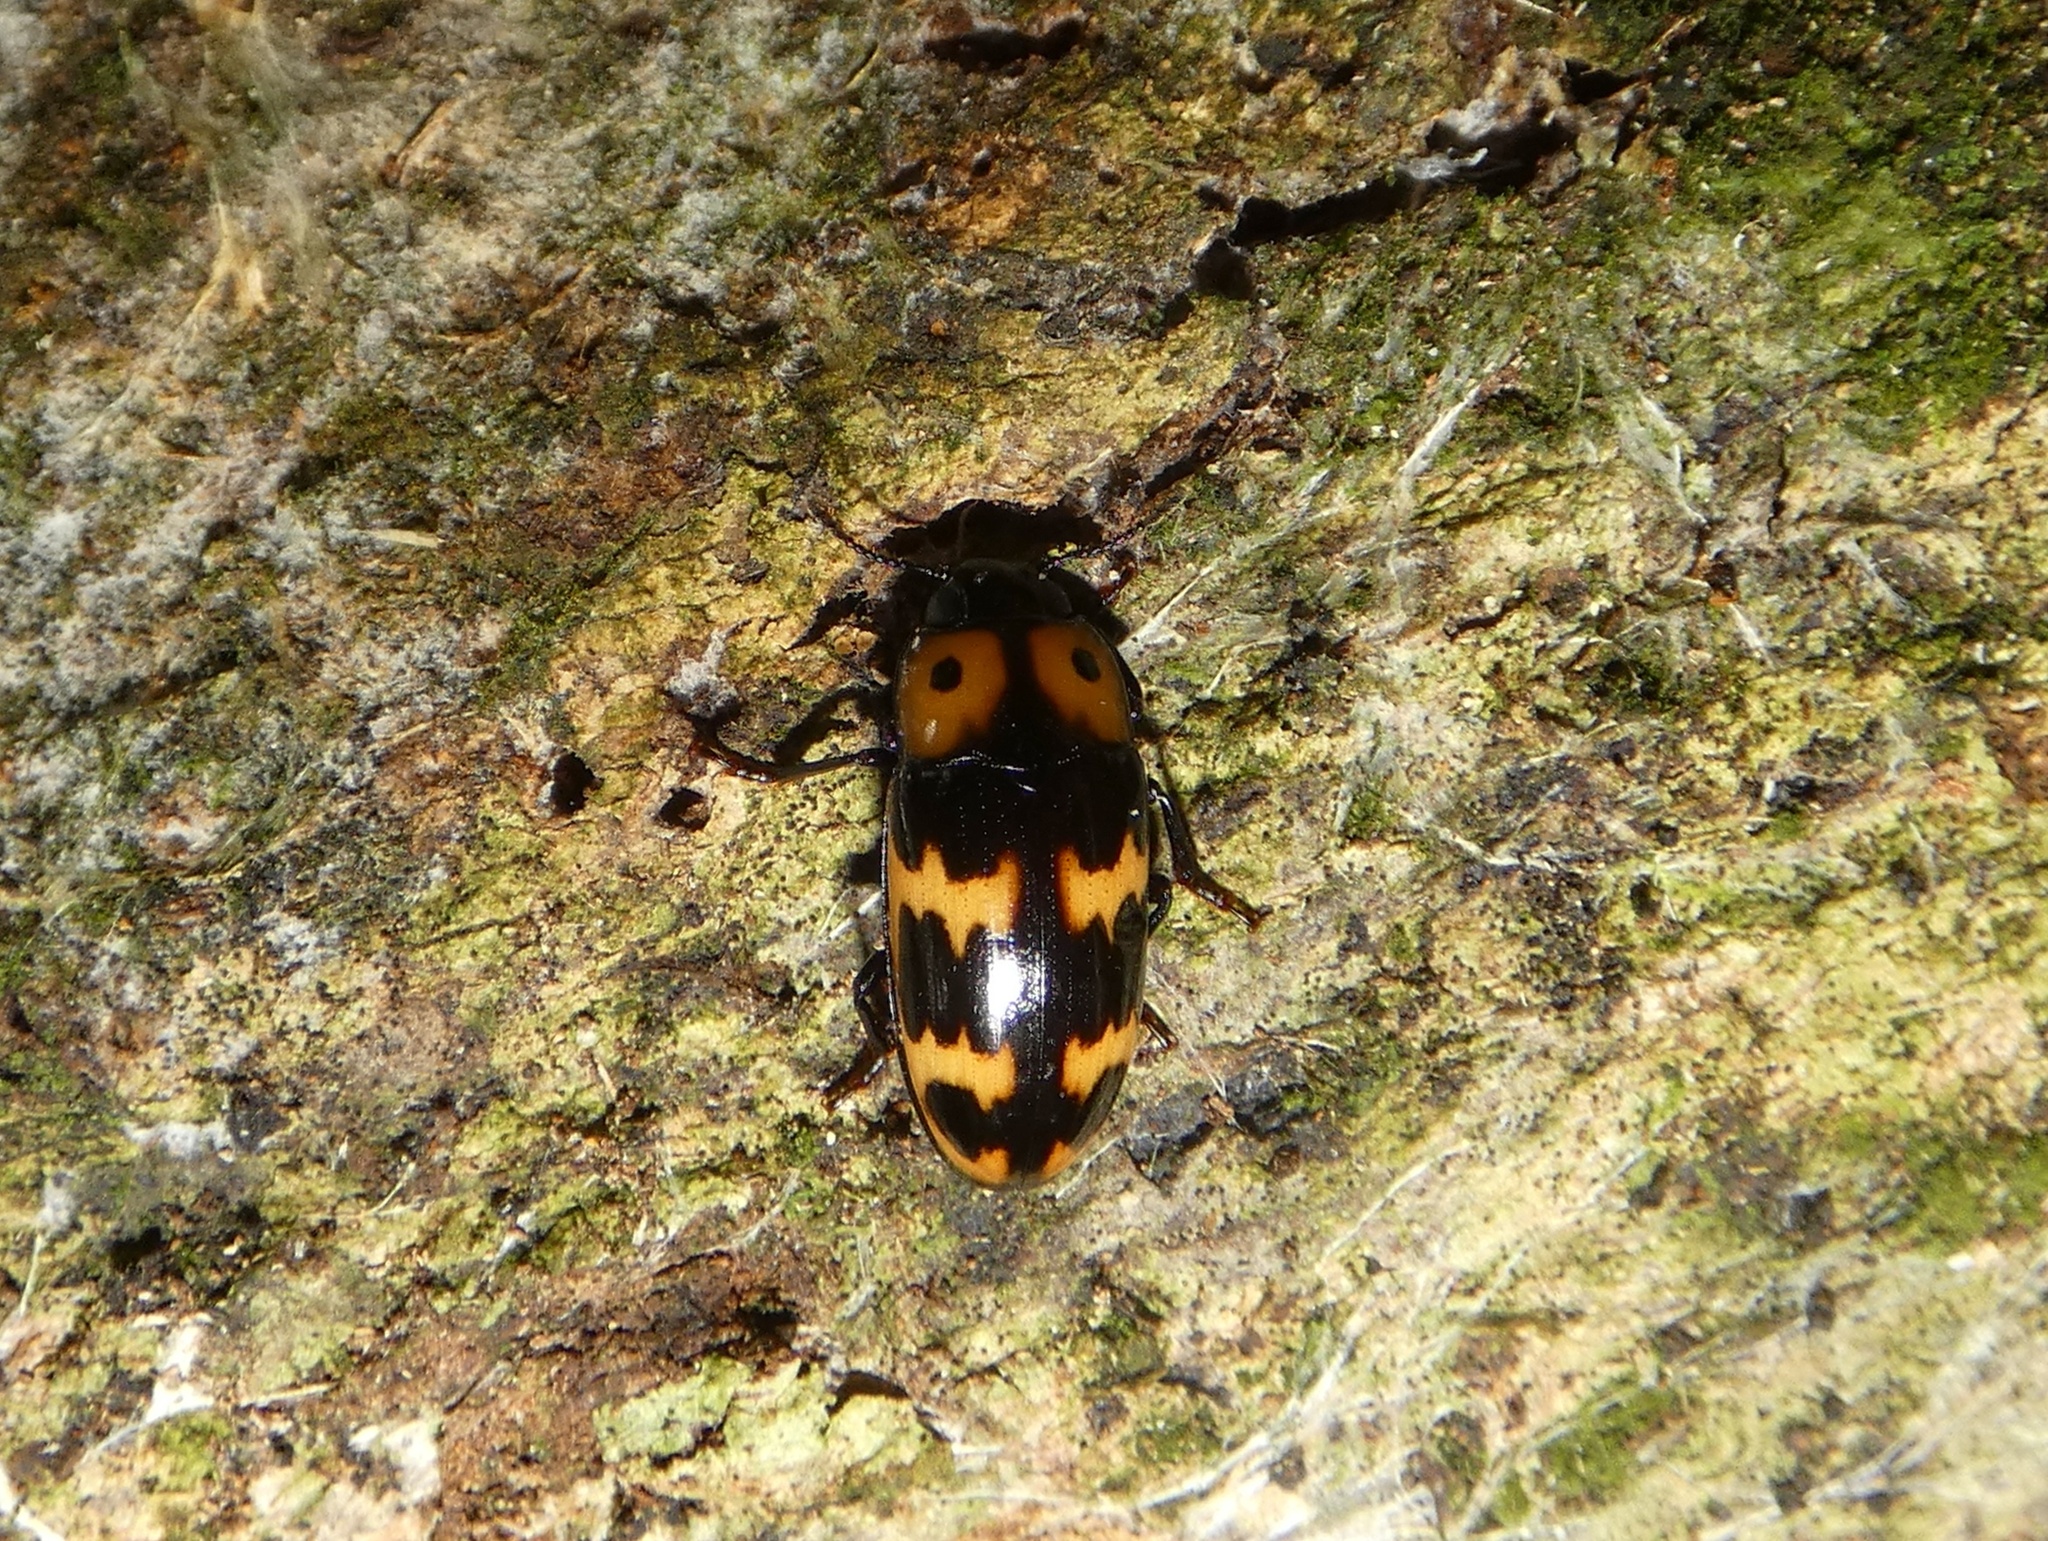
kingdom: Animalia
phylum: Arthropoda
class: Insecta
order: Coleoptera
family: Erotylidae
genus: Pselaphacus
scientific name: Pselaphacus
